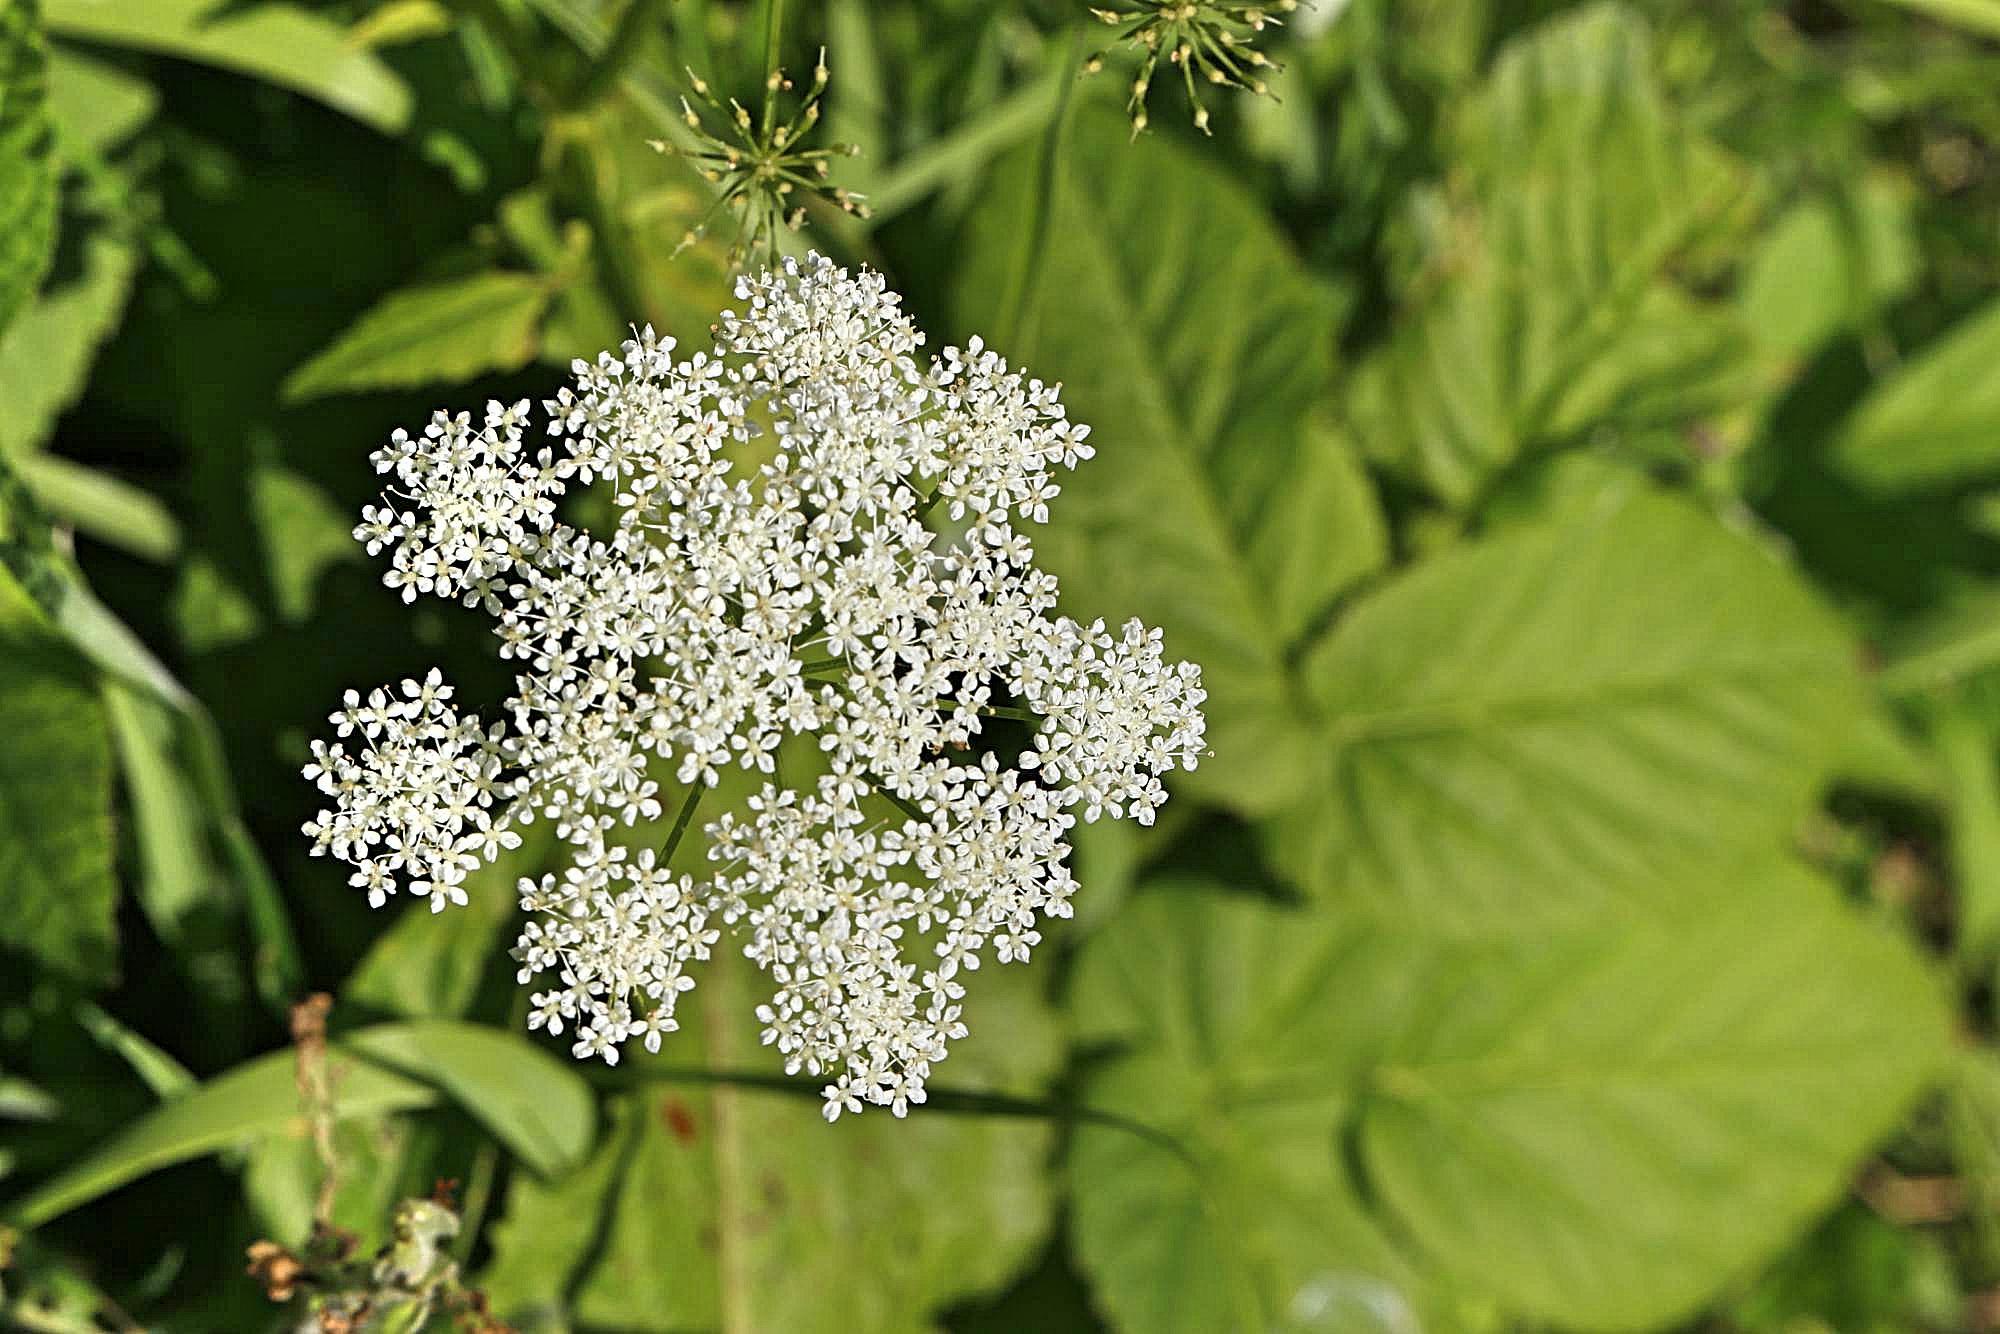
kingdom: Plantae
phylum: Tracheophyta
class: Magnoliopsida
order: Apiales
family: Apiaceae
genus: Aegopodium
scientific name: Aegopodium podagraria
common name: Ground-elder
